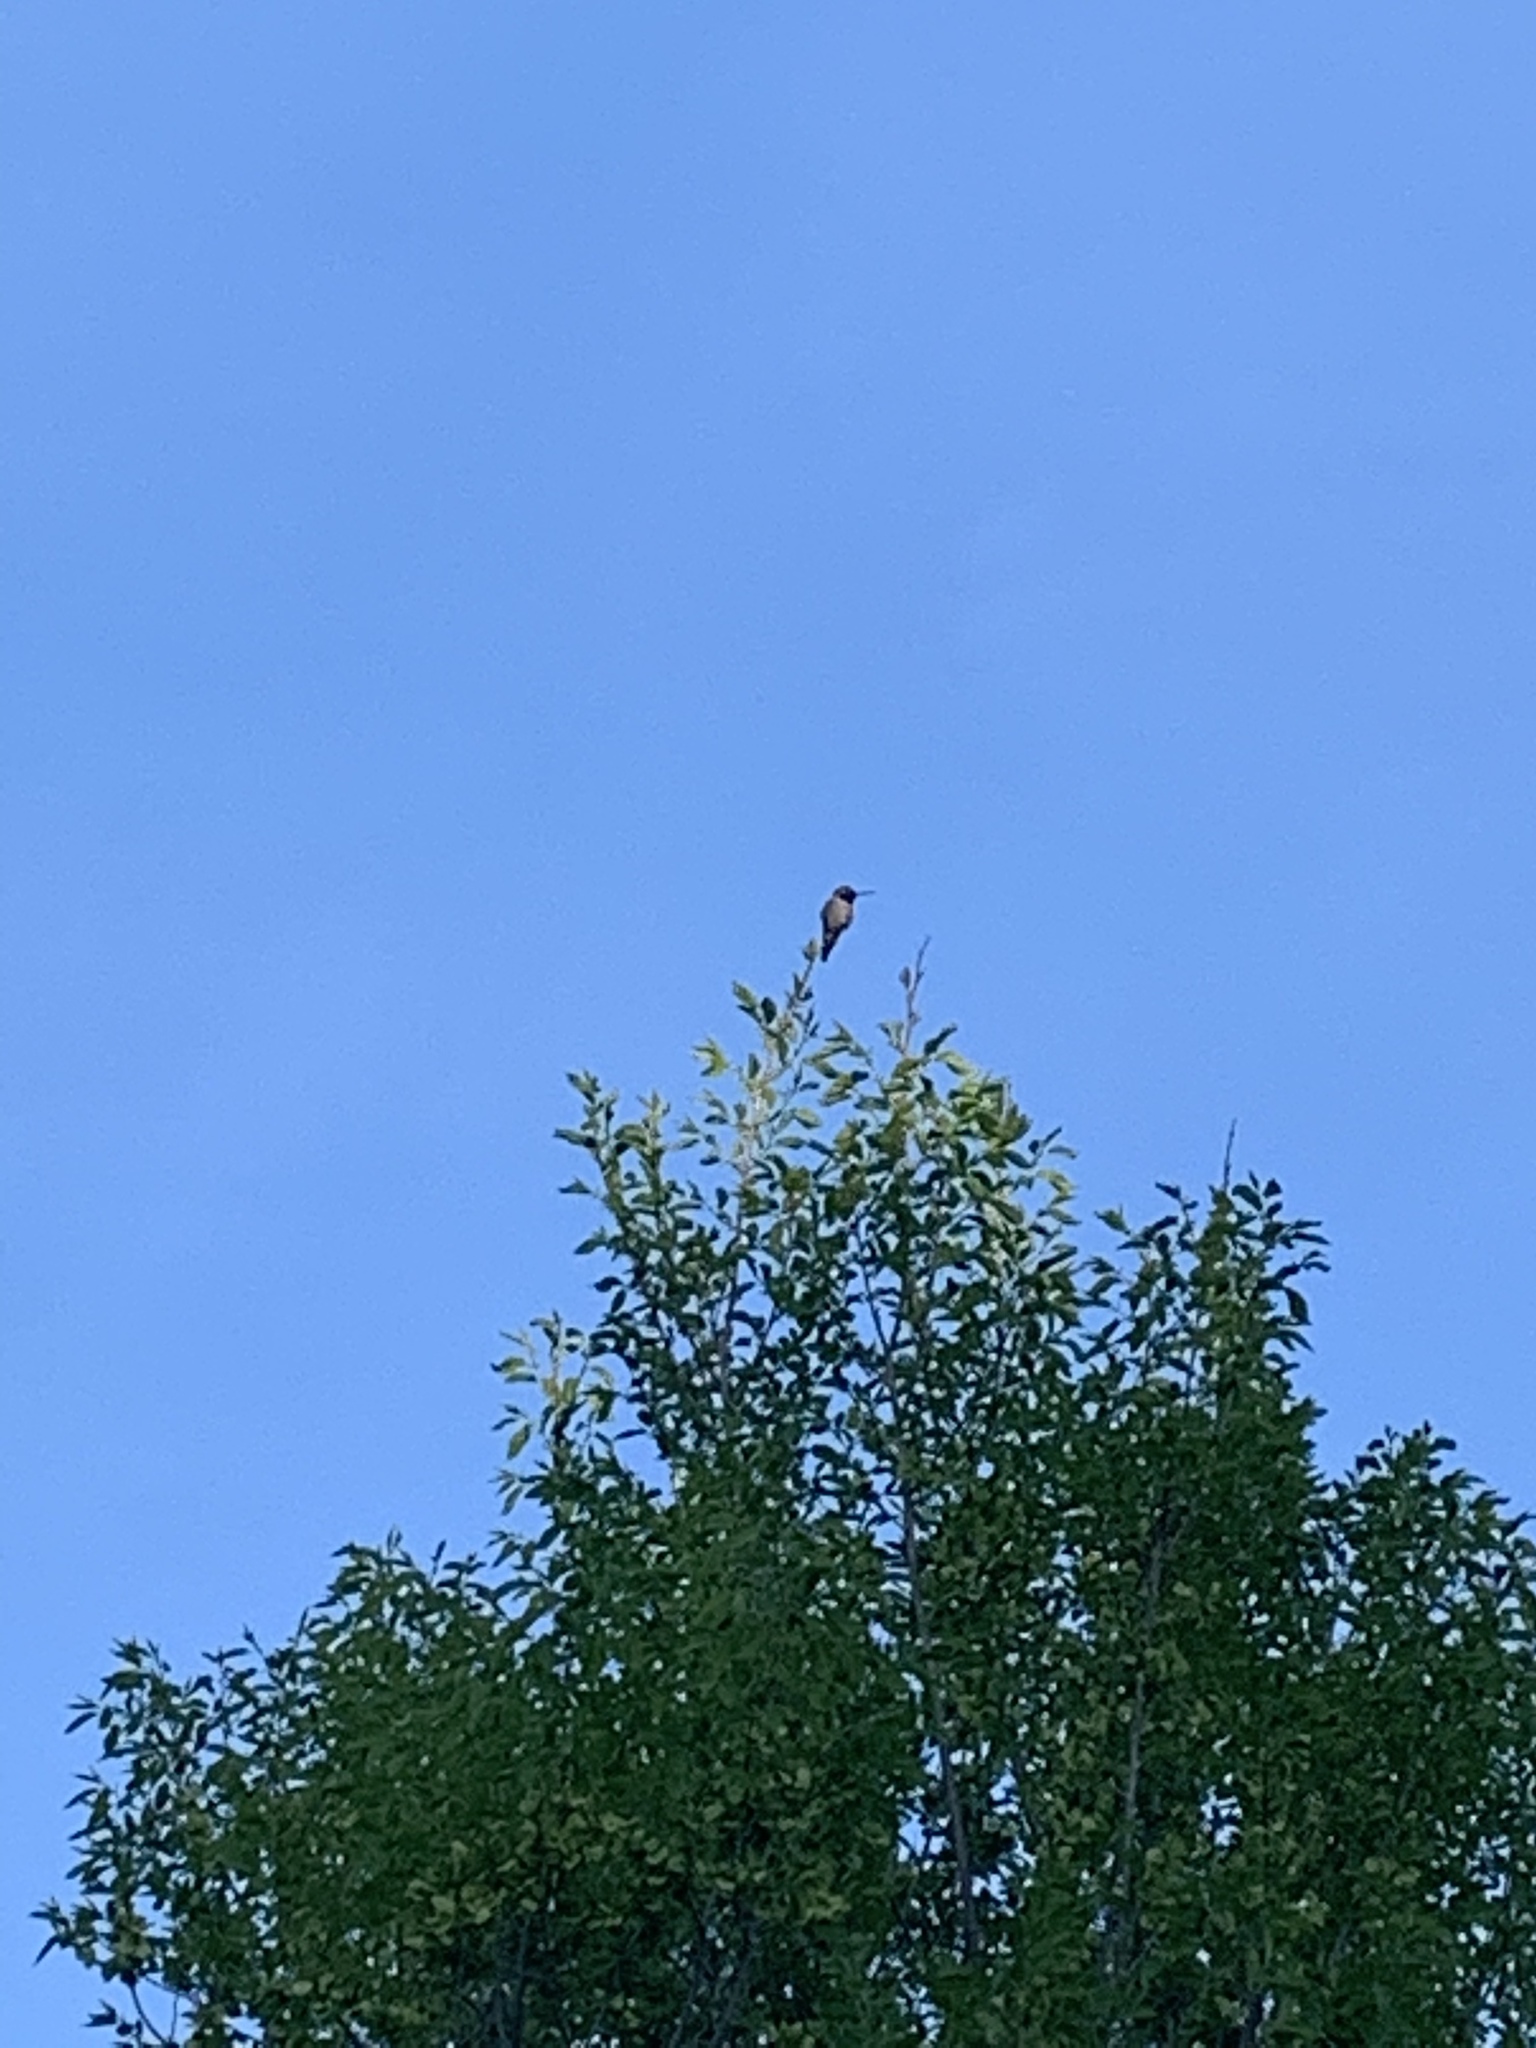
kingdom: Animalia
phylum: Chordata
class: Aves
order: Apodiformes
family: Trochilidae
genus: Selasphorus
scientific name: Selasphorus platycercus
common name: Broad-tailed hummingbird
